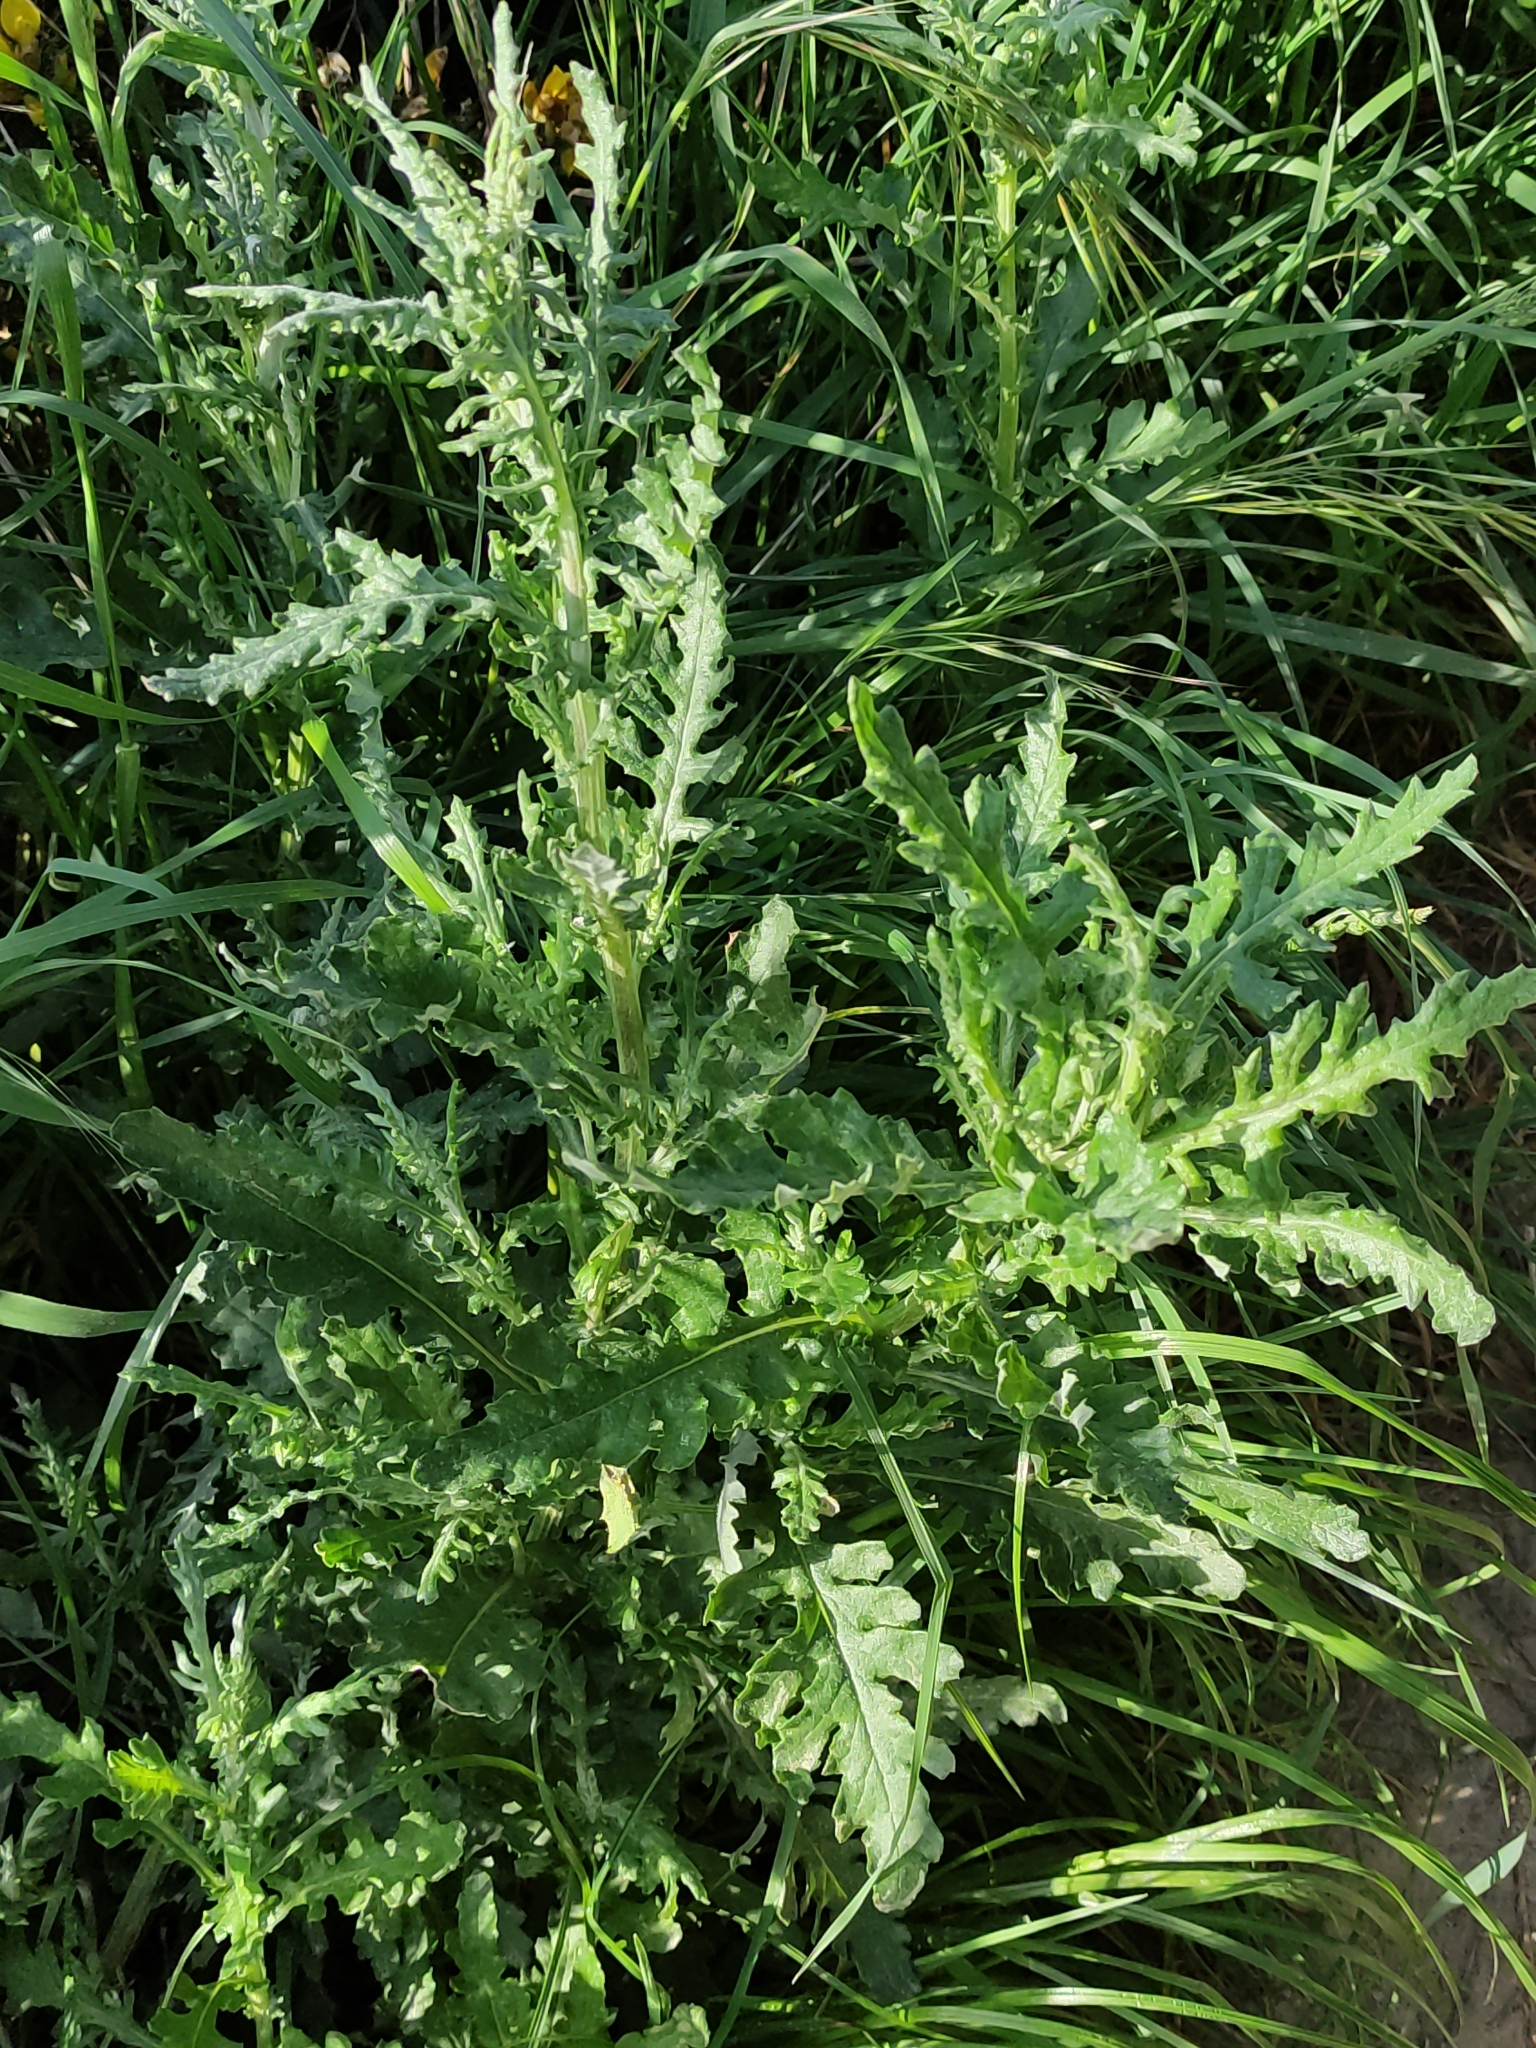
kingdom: Plantae
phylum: Tracheophyta
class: Magnoliopsida
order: Asterales
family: Asteraceae
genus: Senecio
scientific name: Senecio glomeratus
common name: Cutleaf burnweed
